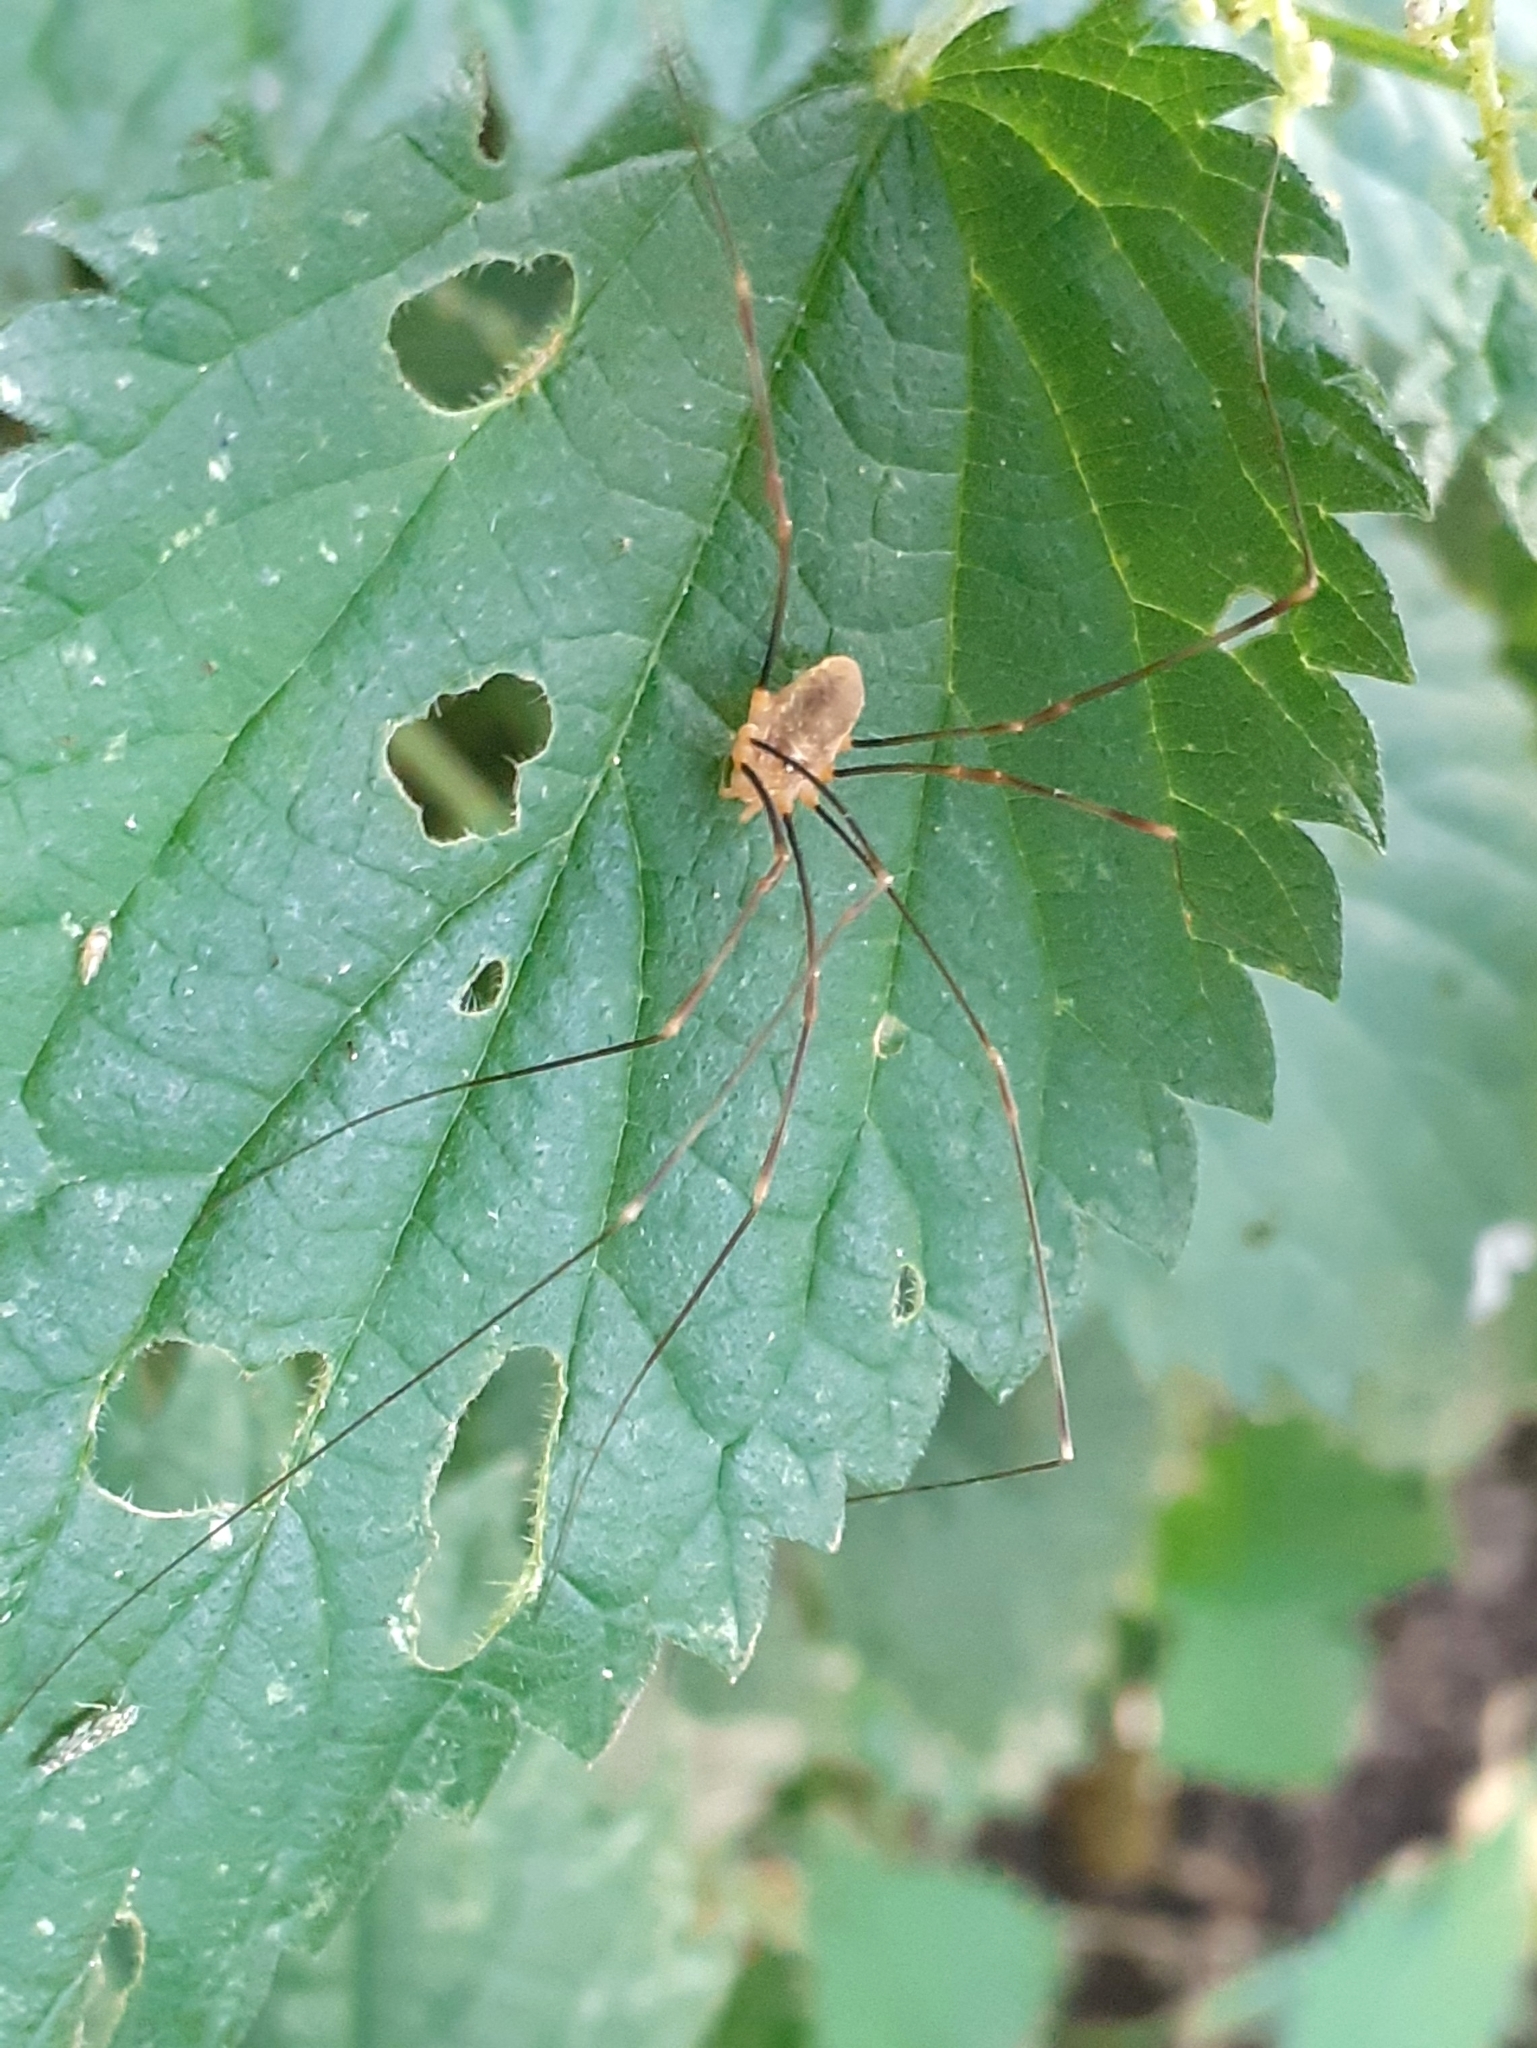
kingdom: Animalia
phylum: Arthropoda
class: Arachnida
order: Opiliones
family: Phalangiidae
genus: Opilio
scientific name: Opilio canestrinii
